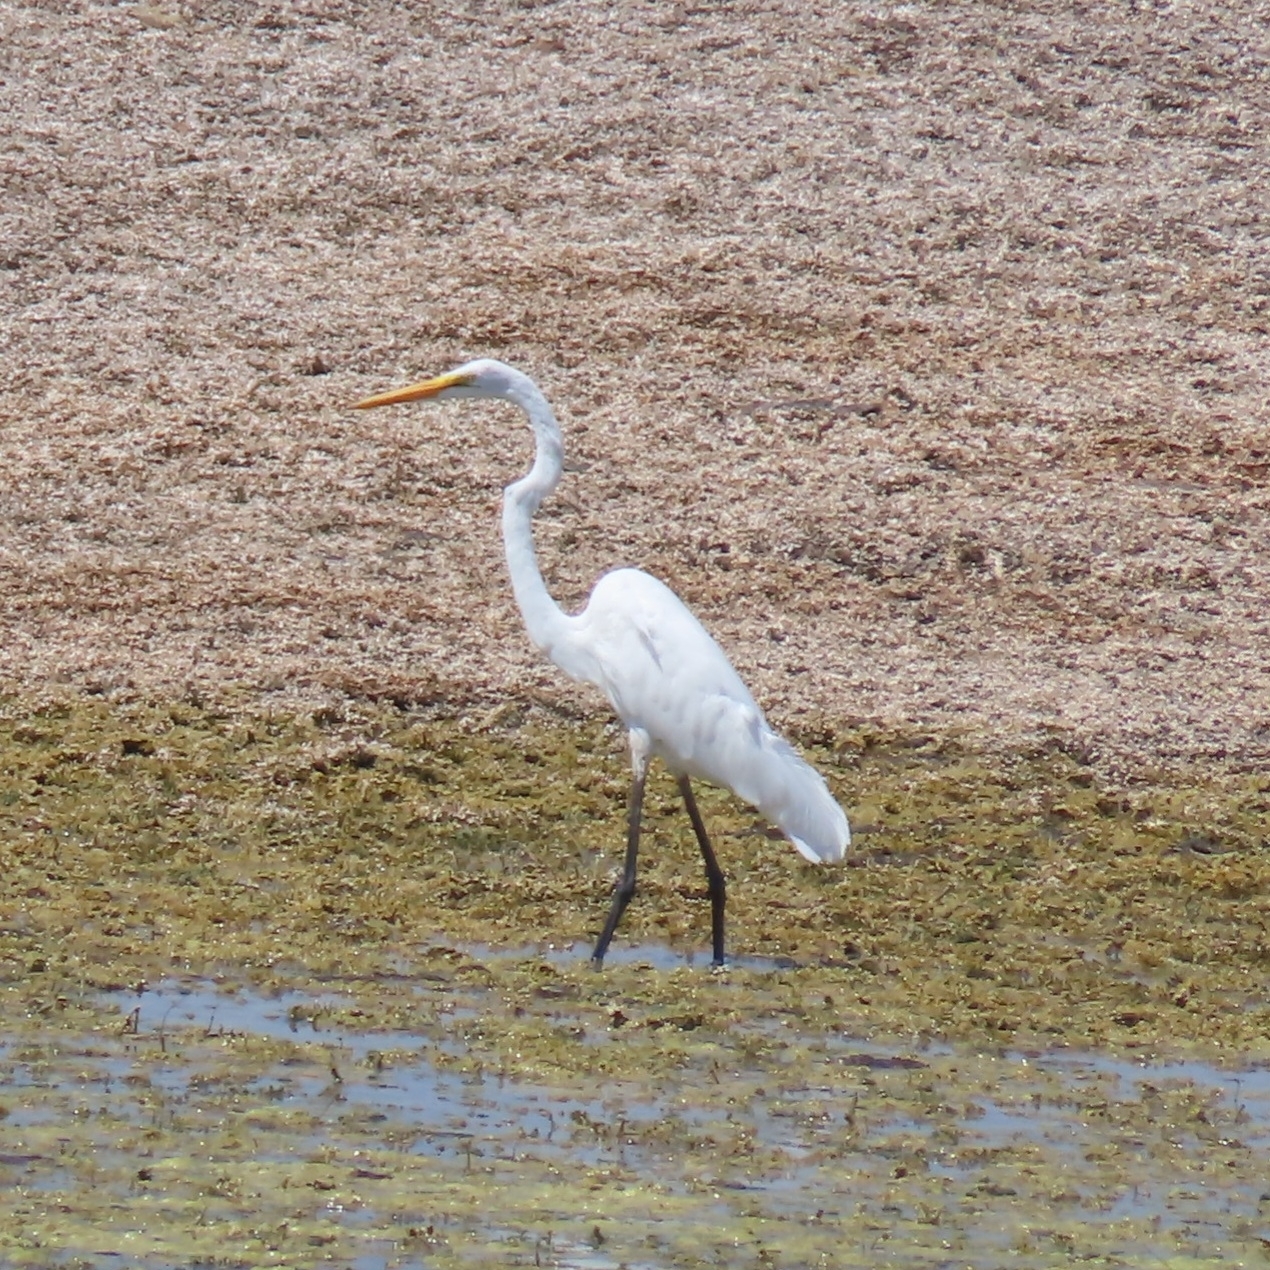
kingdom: Animalia
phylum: Chordata
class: Aves
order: Pelecaniformes
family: Ardeidae
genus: Ardea
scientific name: Ardea alba
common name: Great egret
